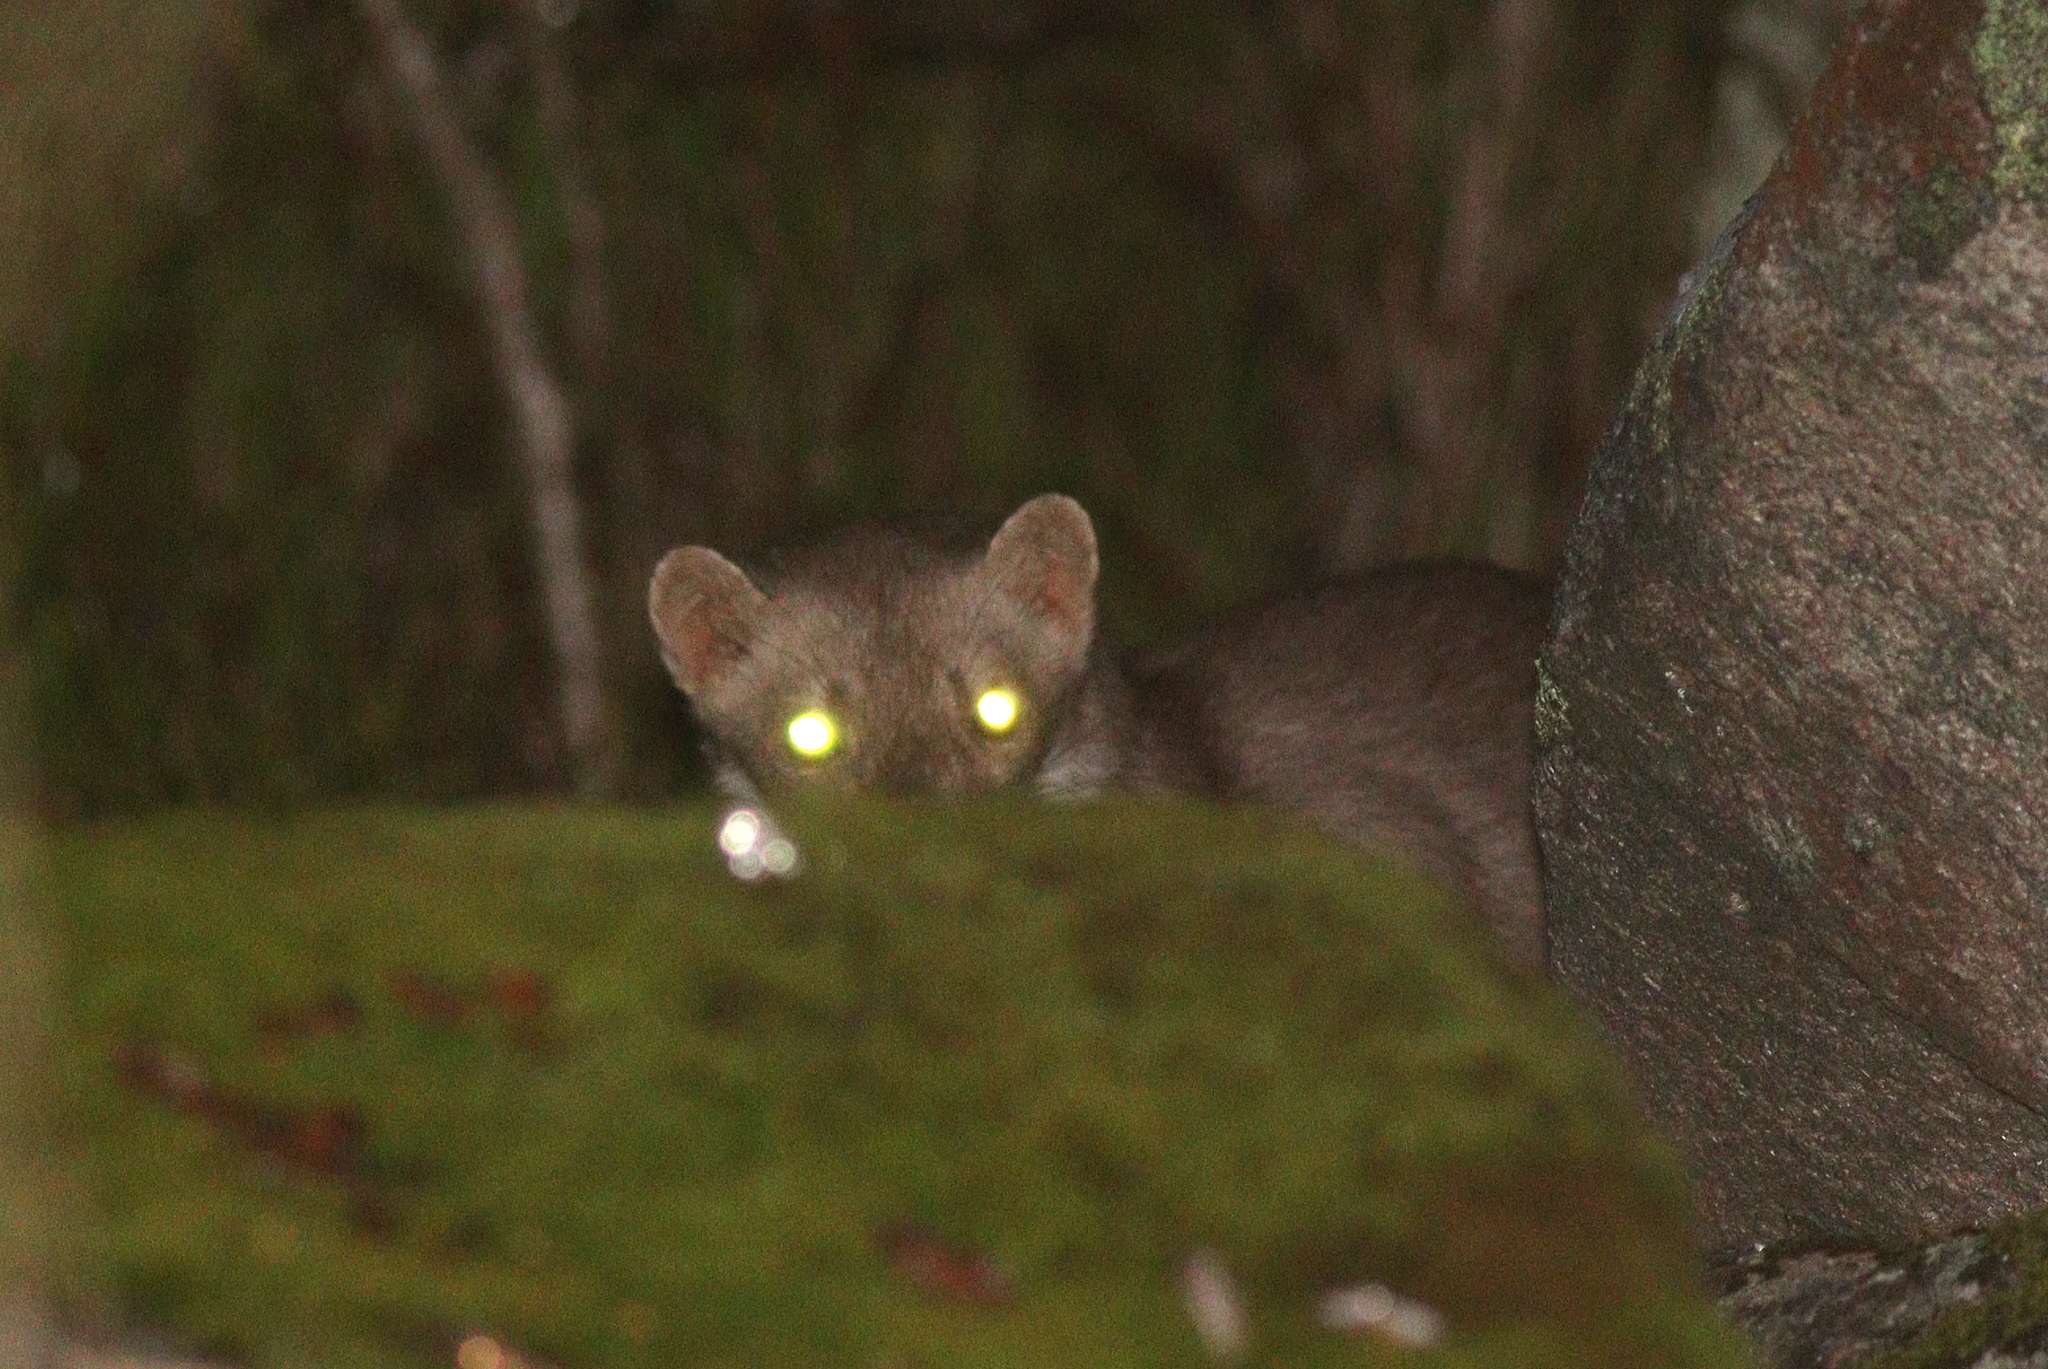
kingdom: Animalia
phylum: Chordata
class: Mammalia
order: Carnivora
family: Mustelidae
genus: Martes
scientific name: Martes foina
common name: Beech marten
